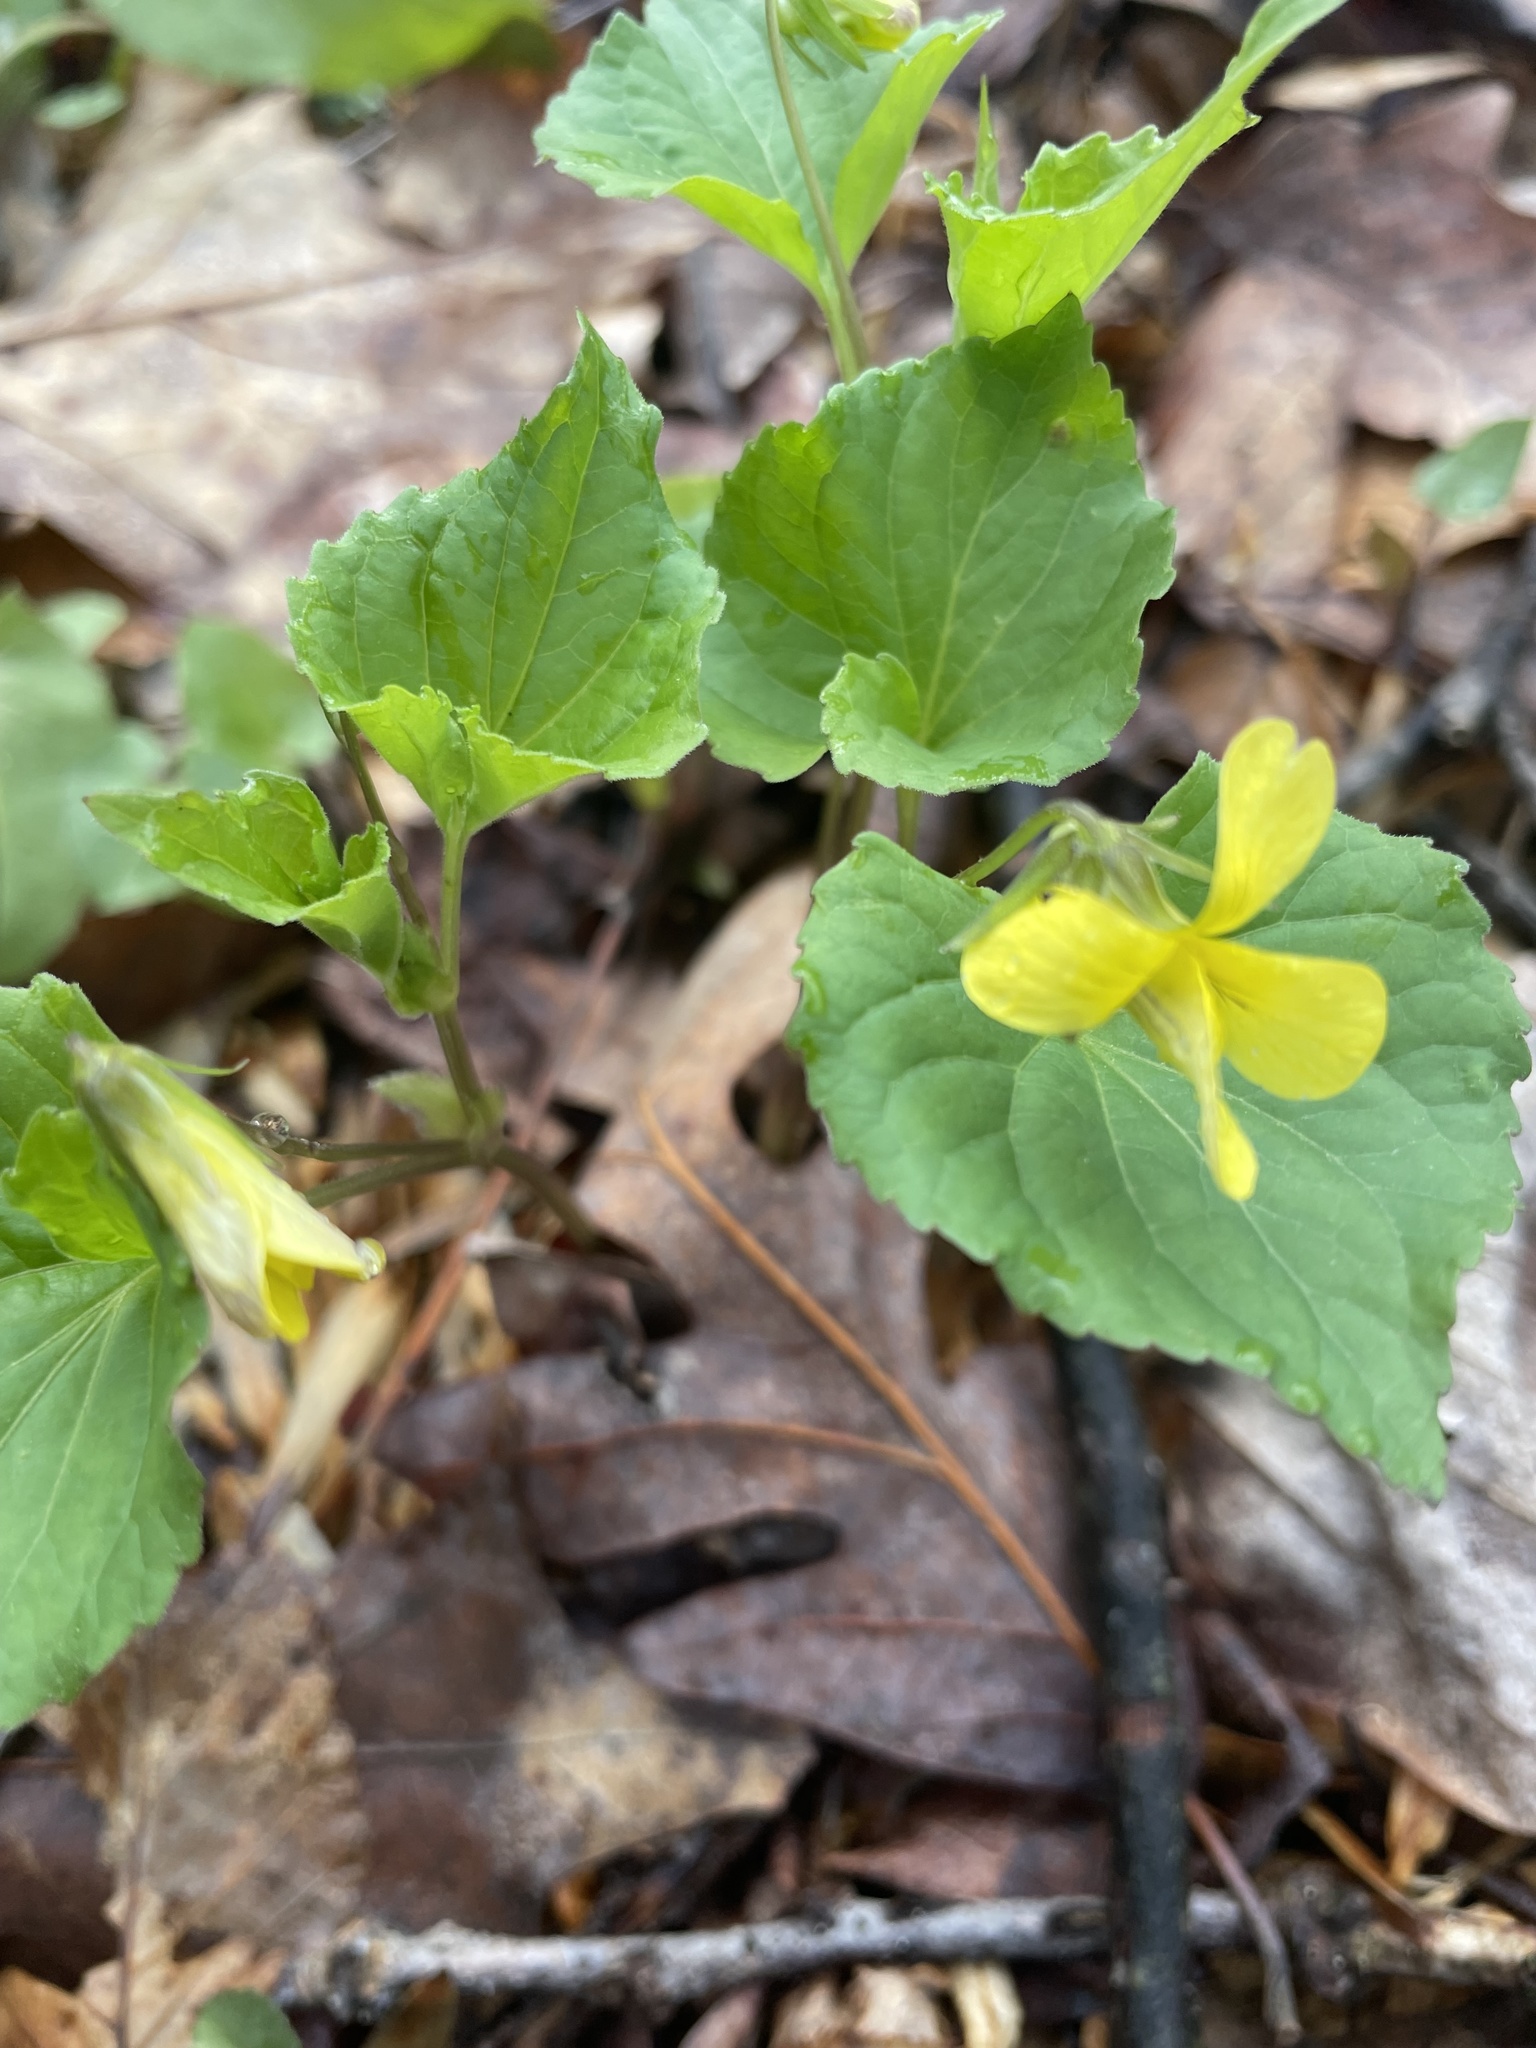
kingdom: Plantae
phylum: Tracheophyta
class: Magnoliopsida
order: Malpighiales
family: Violaceae
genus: Viola
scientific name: Viola eriocarpa
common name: Smooth yellow violet
